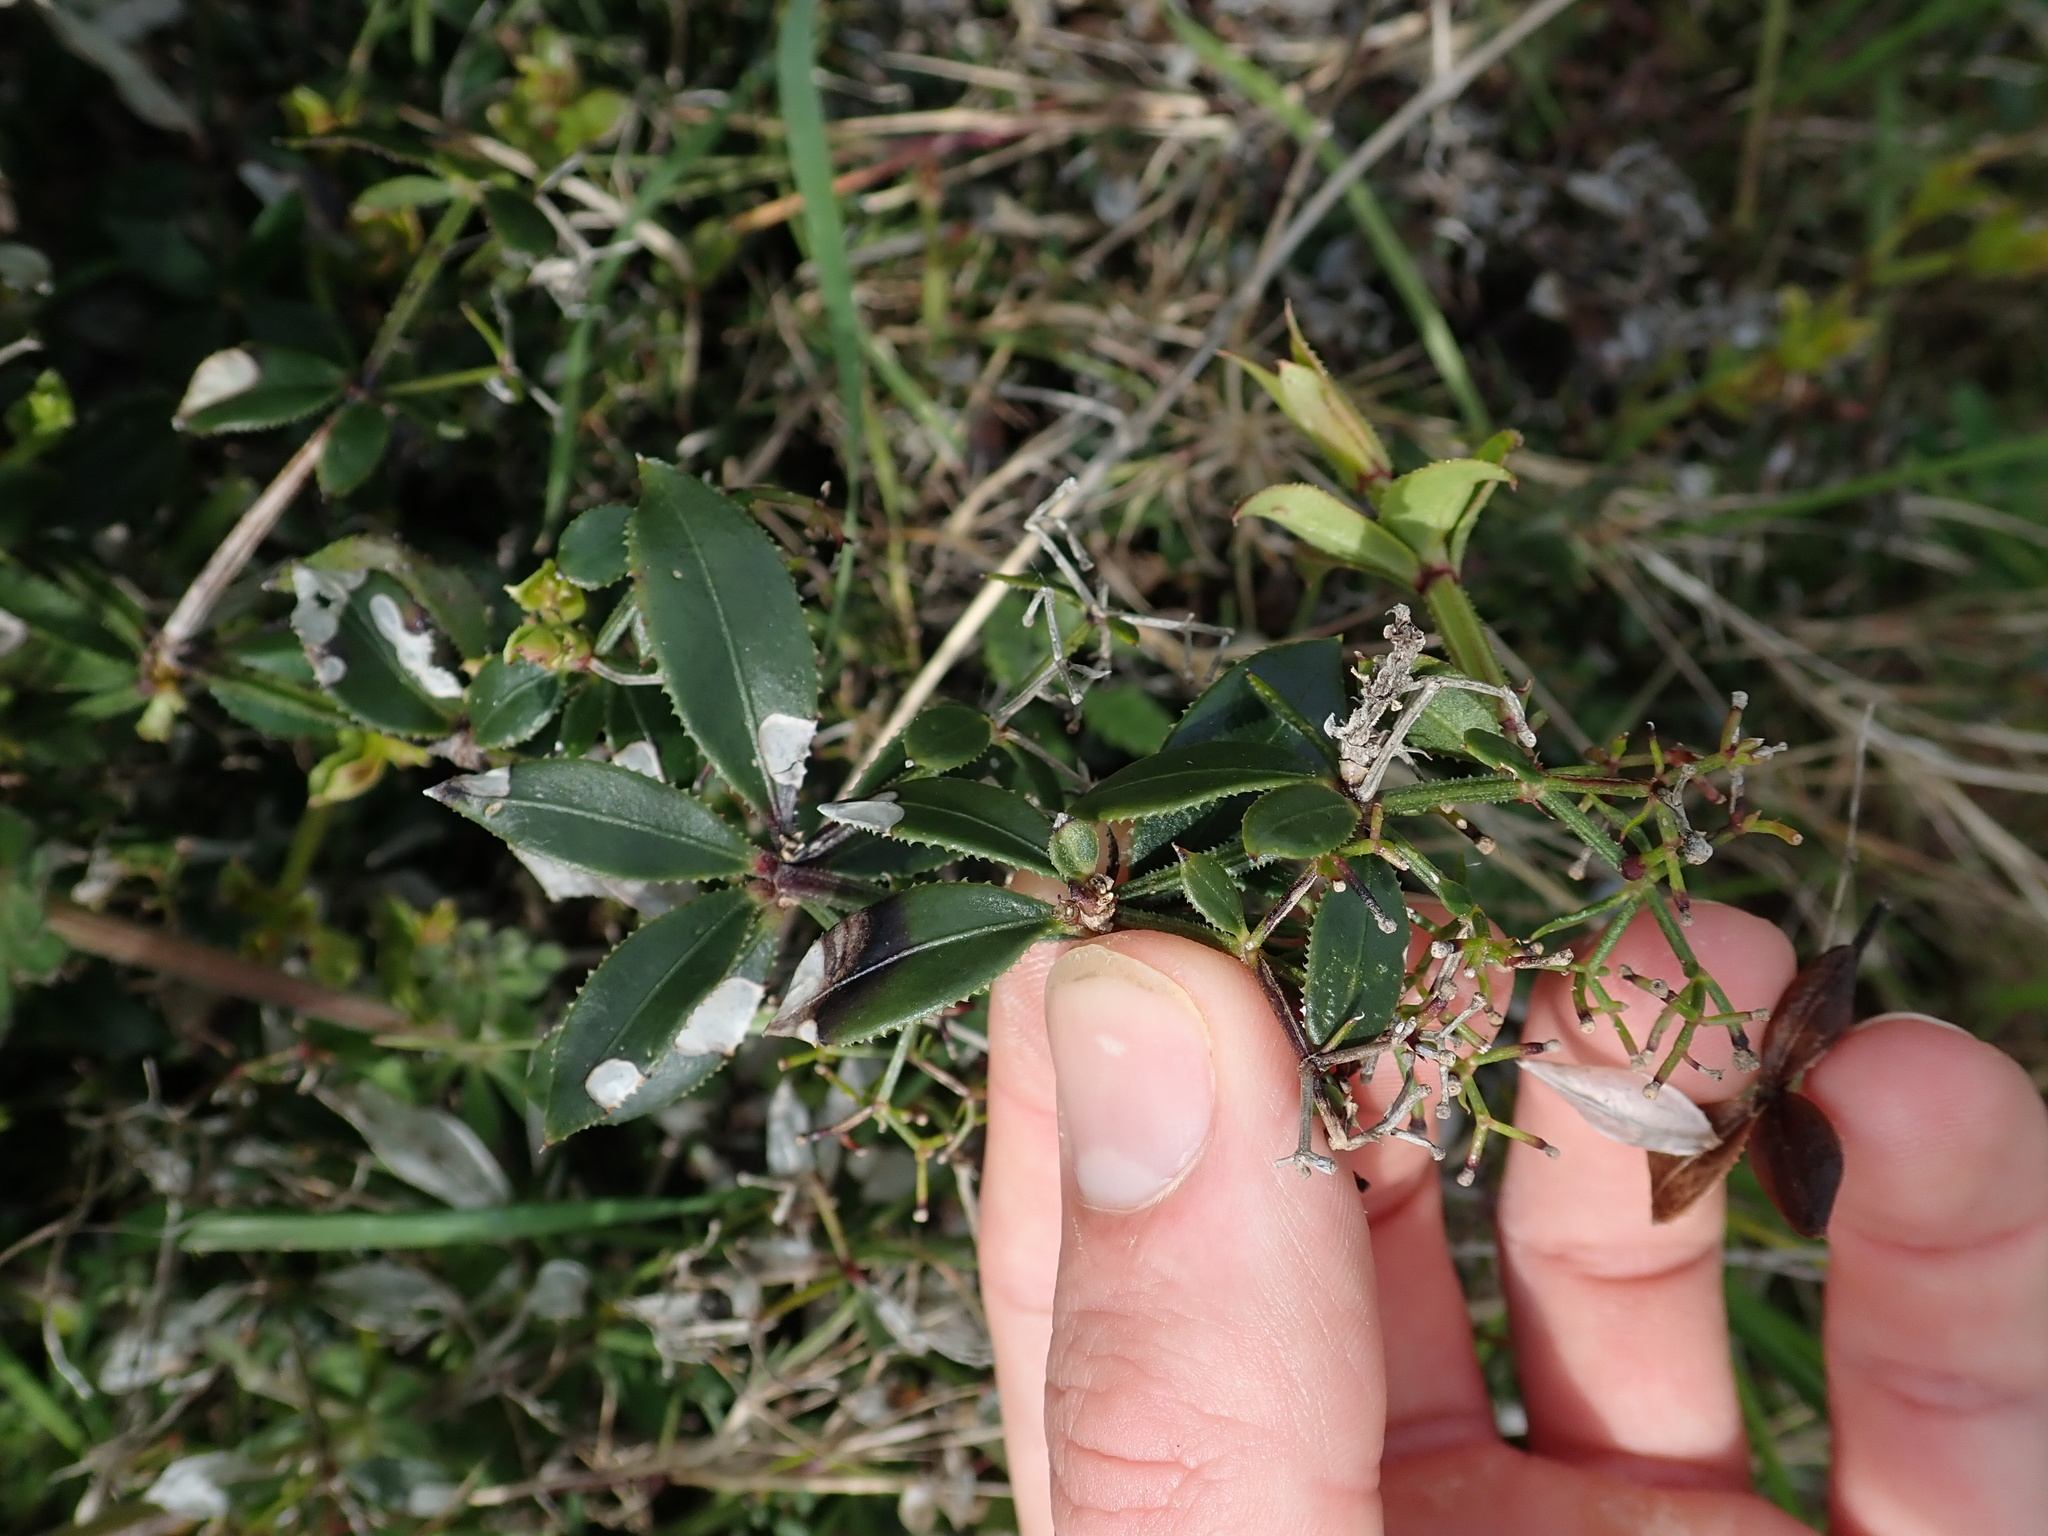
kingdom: Plantae
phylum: Tracheophyta
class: Magnoliopsida
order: Gentianales
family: Rubiaceae
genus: Rubia
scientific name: Rubia peregrina
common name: Wild madder
